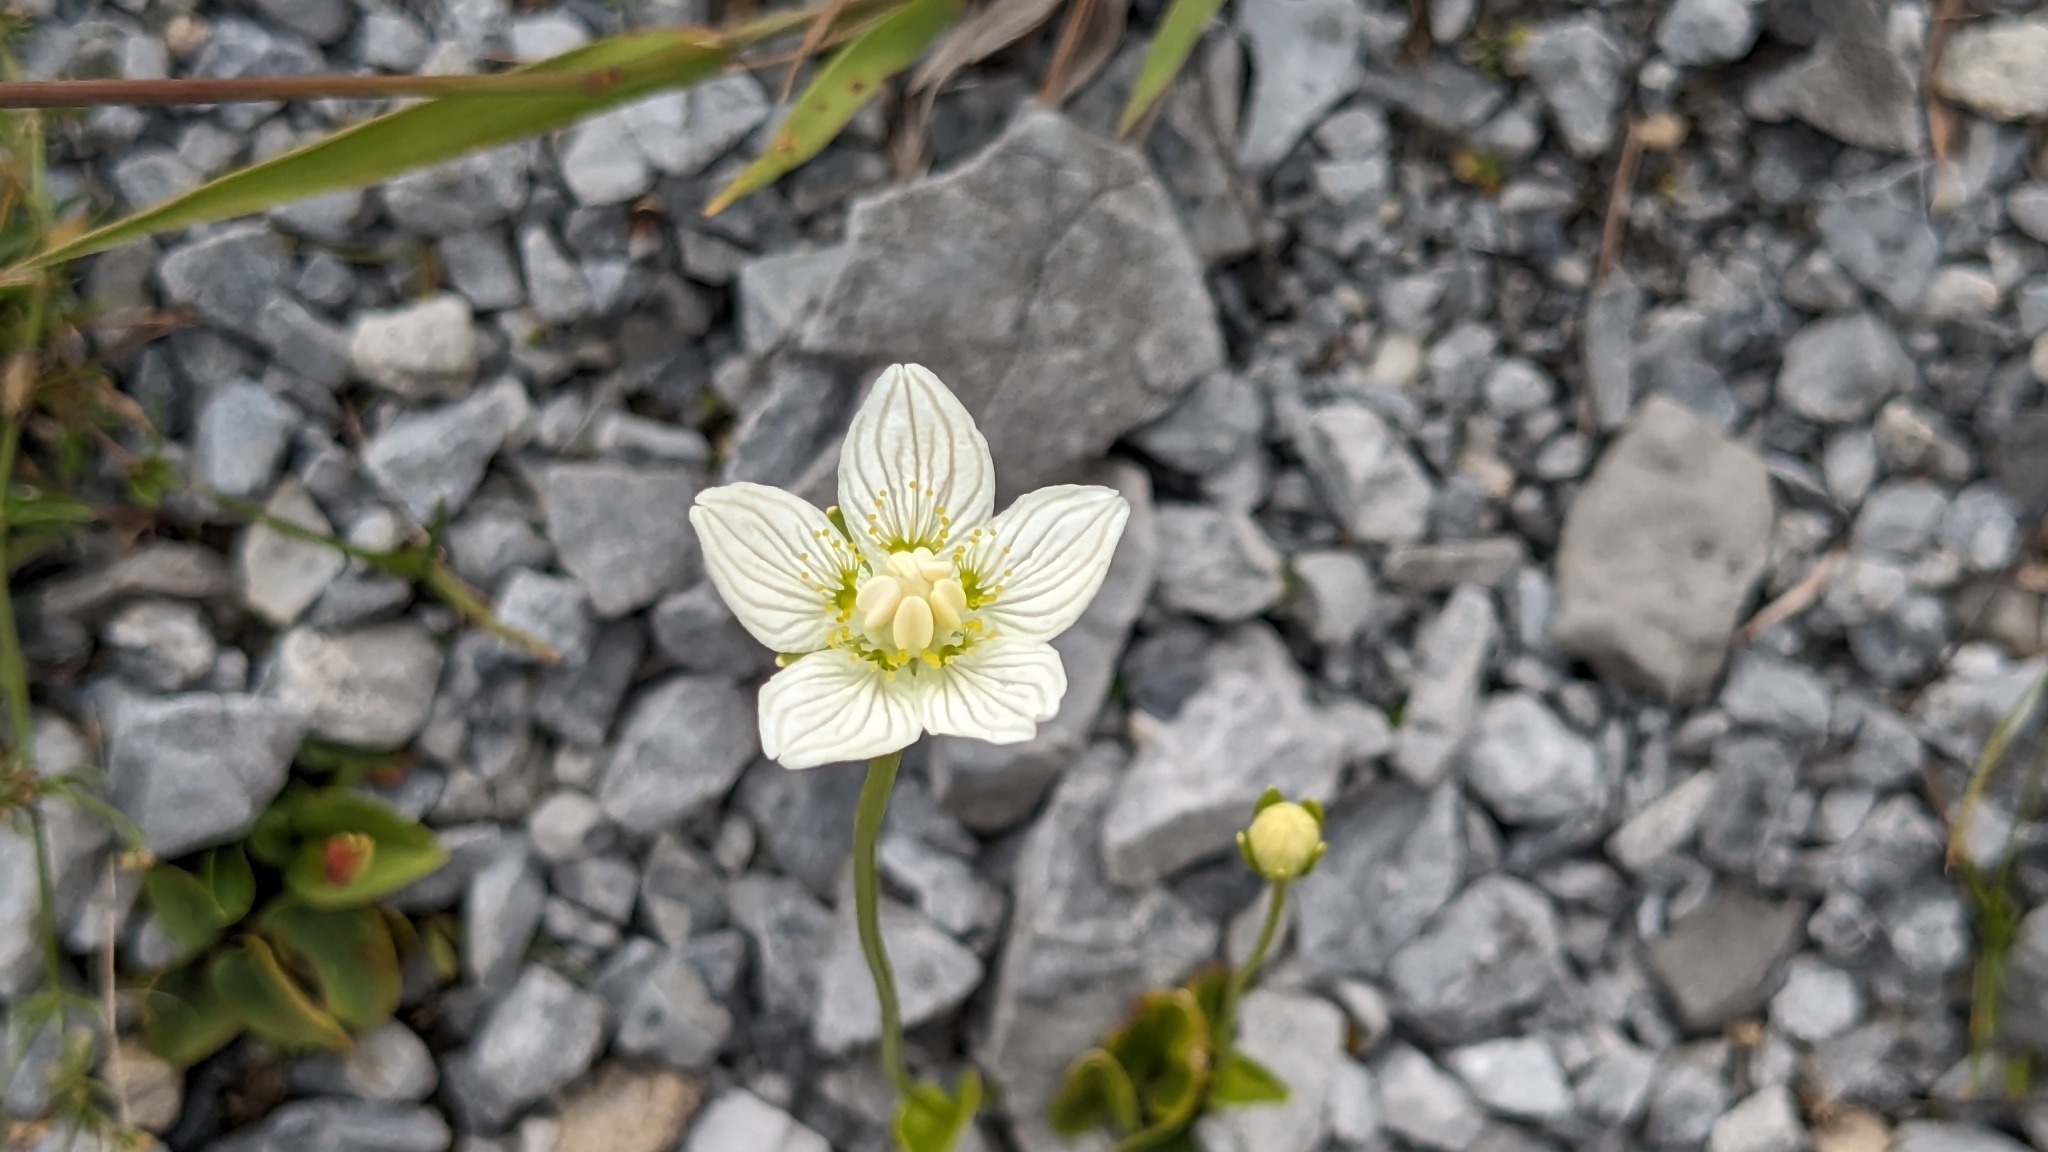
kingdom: Plantae
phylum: Tracheophyta
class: Magnoliopsida
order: Celastrales
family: Parnassiaceae
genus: Parnassia
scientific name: Parnassia palustris
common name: Grass-of-parnassus
